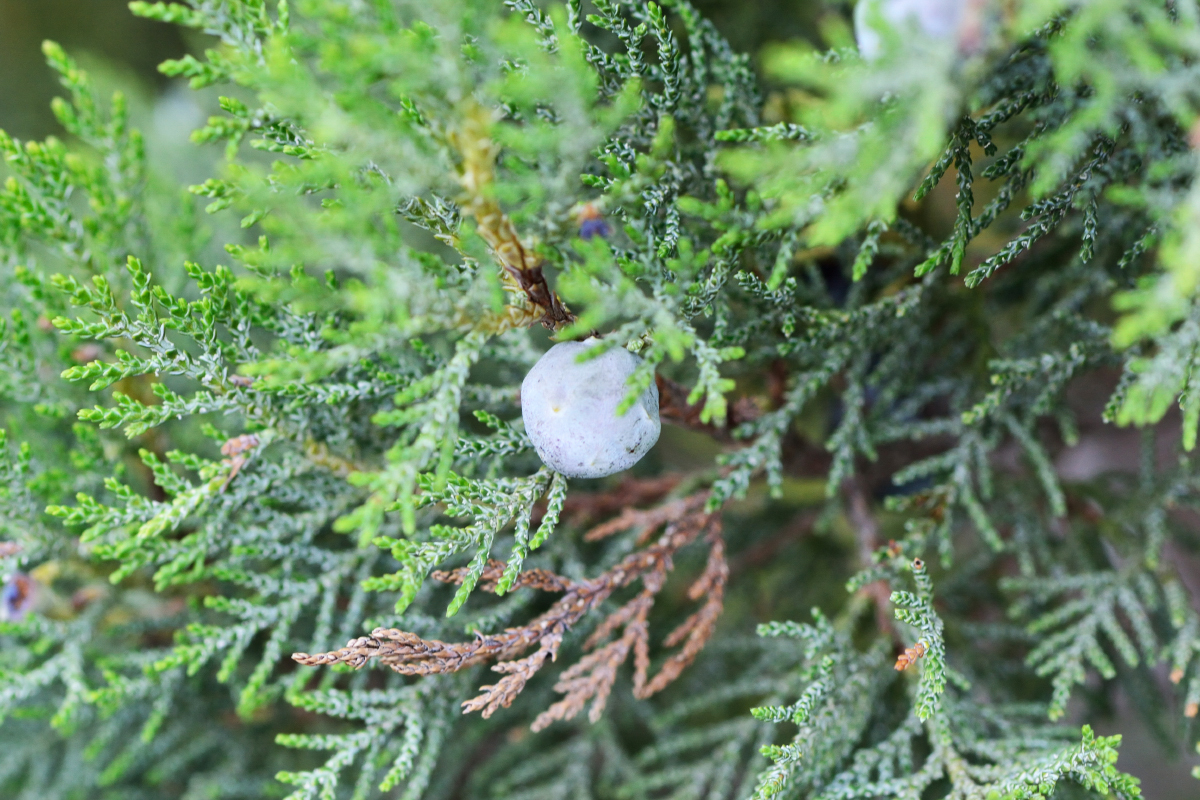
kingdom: Plantae
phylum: Tracheophyta
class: Pinopsida
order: Pinales
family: Cupressaceae
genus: Juniperus
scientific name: Juniperus excelsa
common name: Crimean juniper
